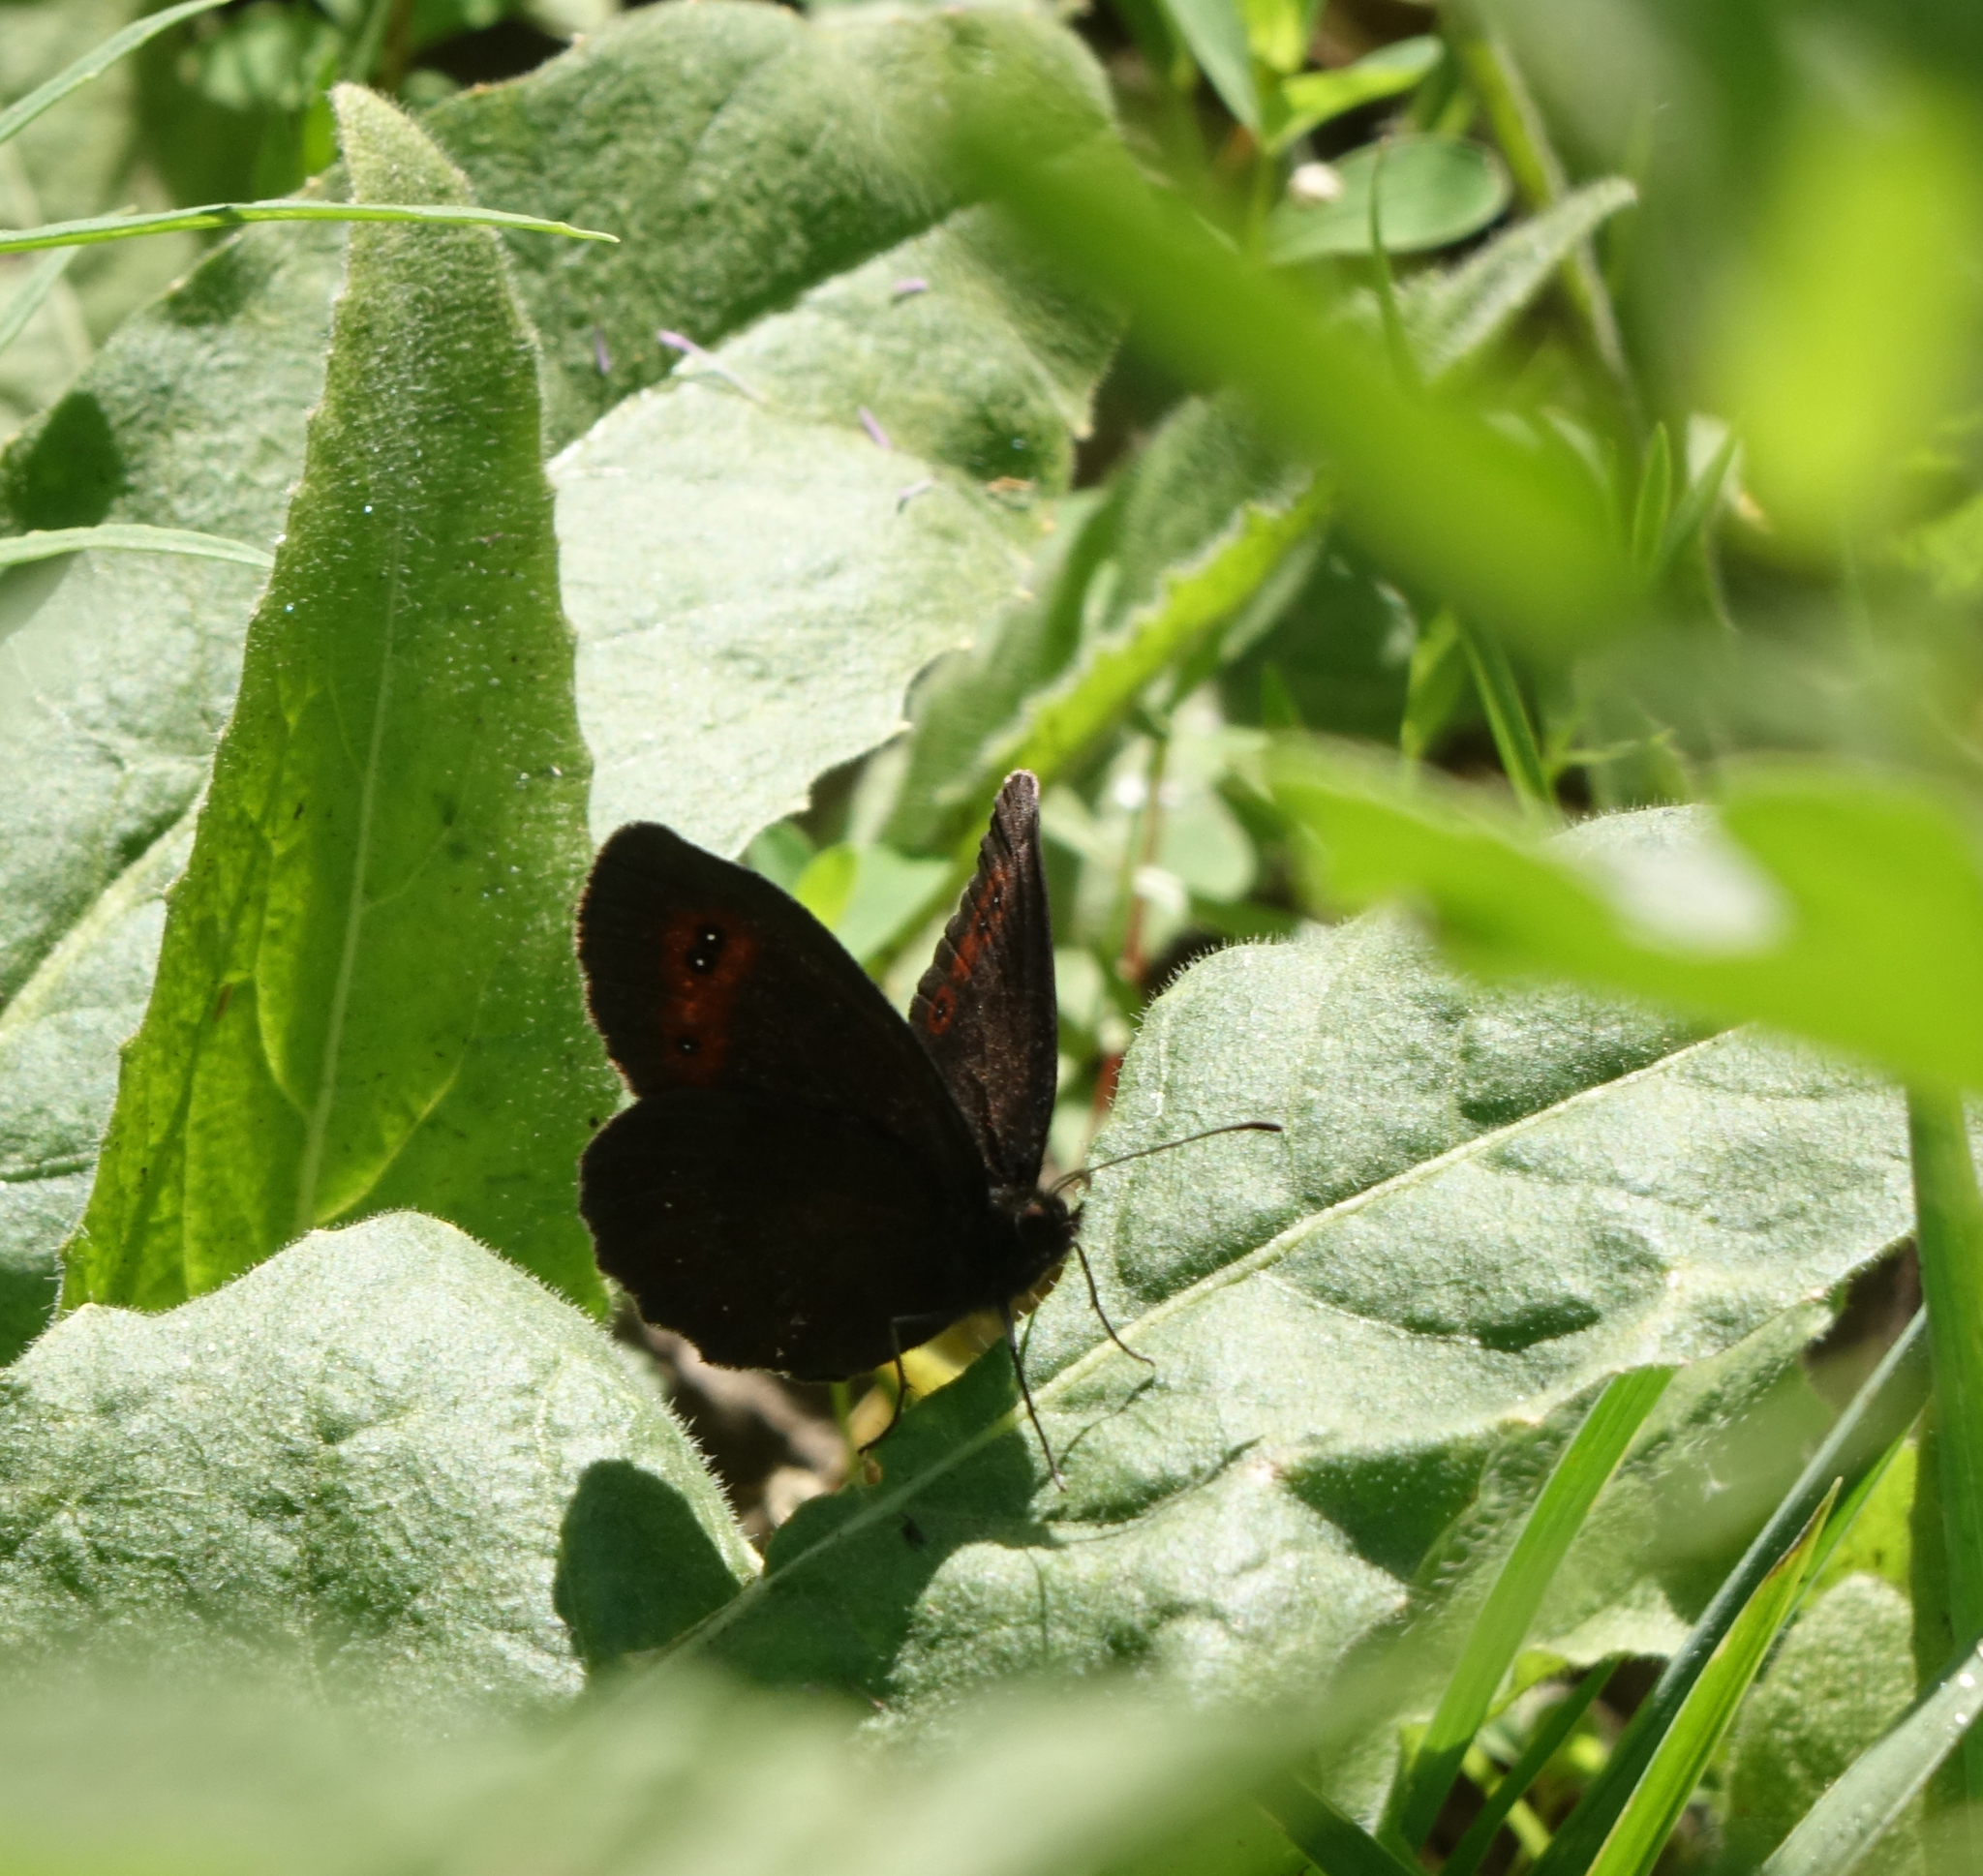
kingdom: Animalia
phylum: Arthropoda
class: Insecta
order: Lepidoptera
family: Nymphalidae
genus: Erebia
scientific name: Erebia aethiops
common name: Scotch argus
